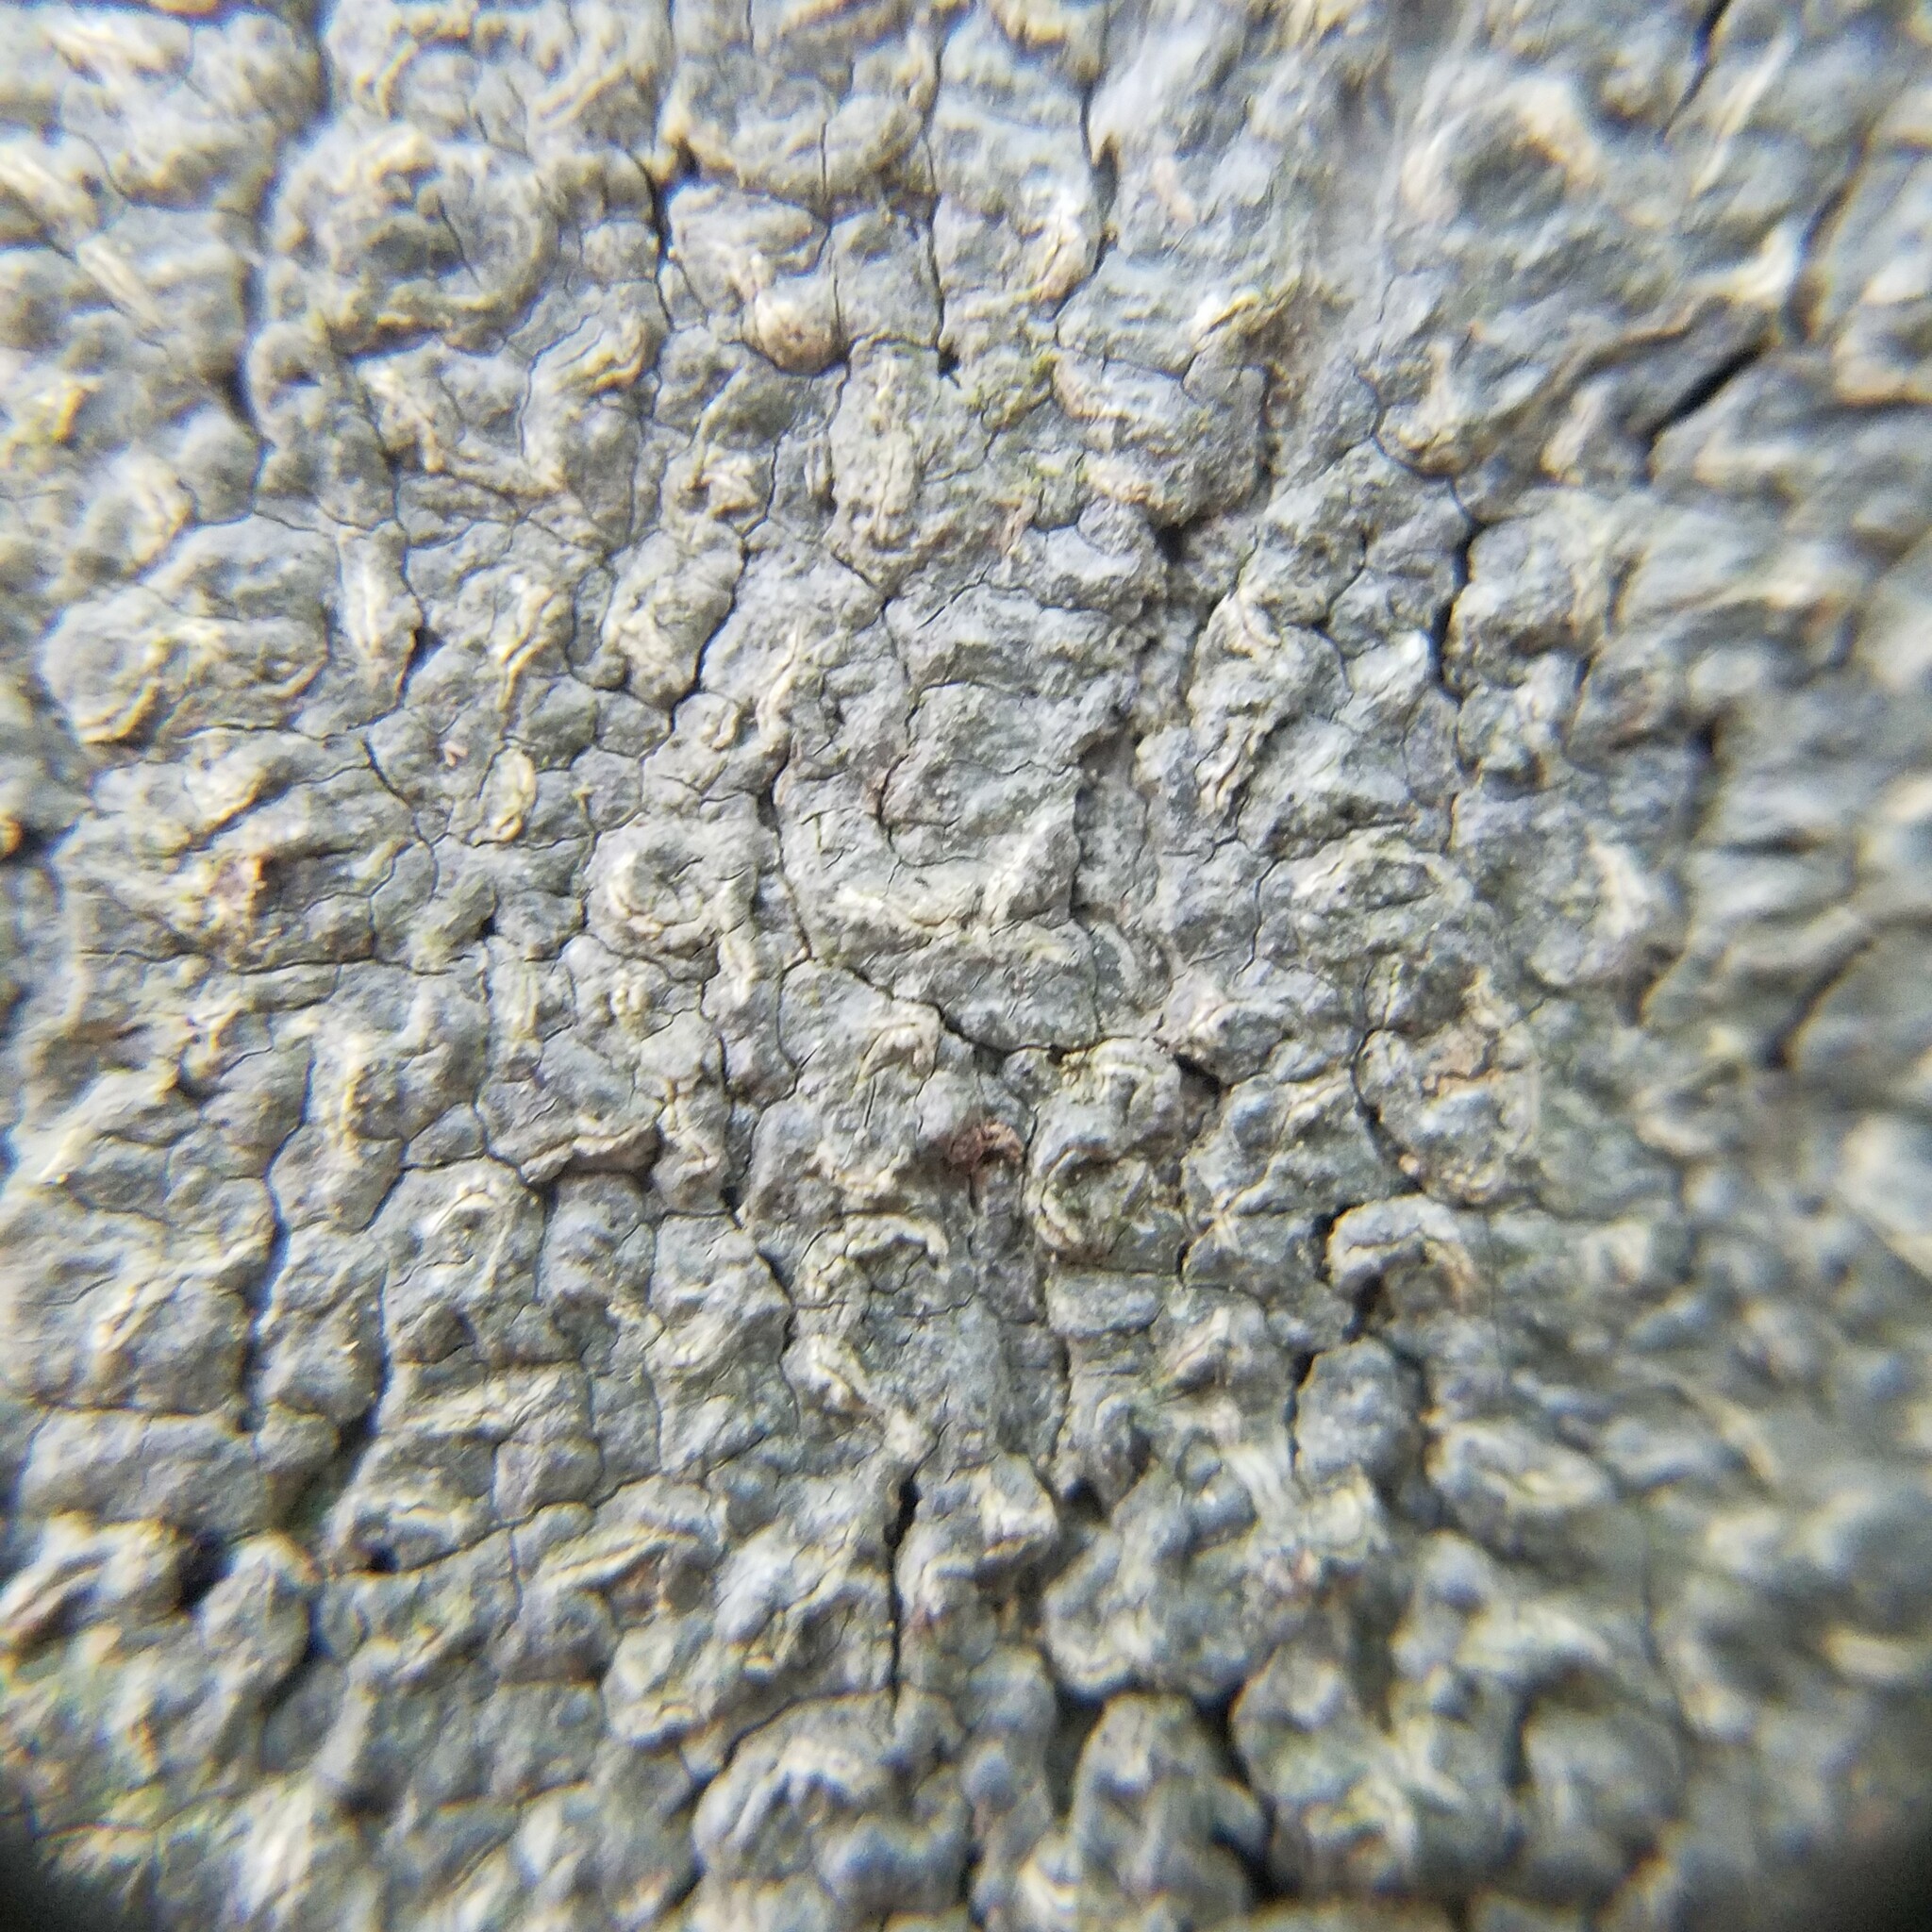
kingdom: Fungi
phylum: Ascomycota
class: Lecanoromycetes
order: Ostropales
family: Graphidaceae
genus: Fissurina
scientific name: Fissurina insidiosa
